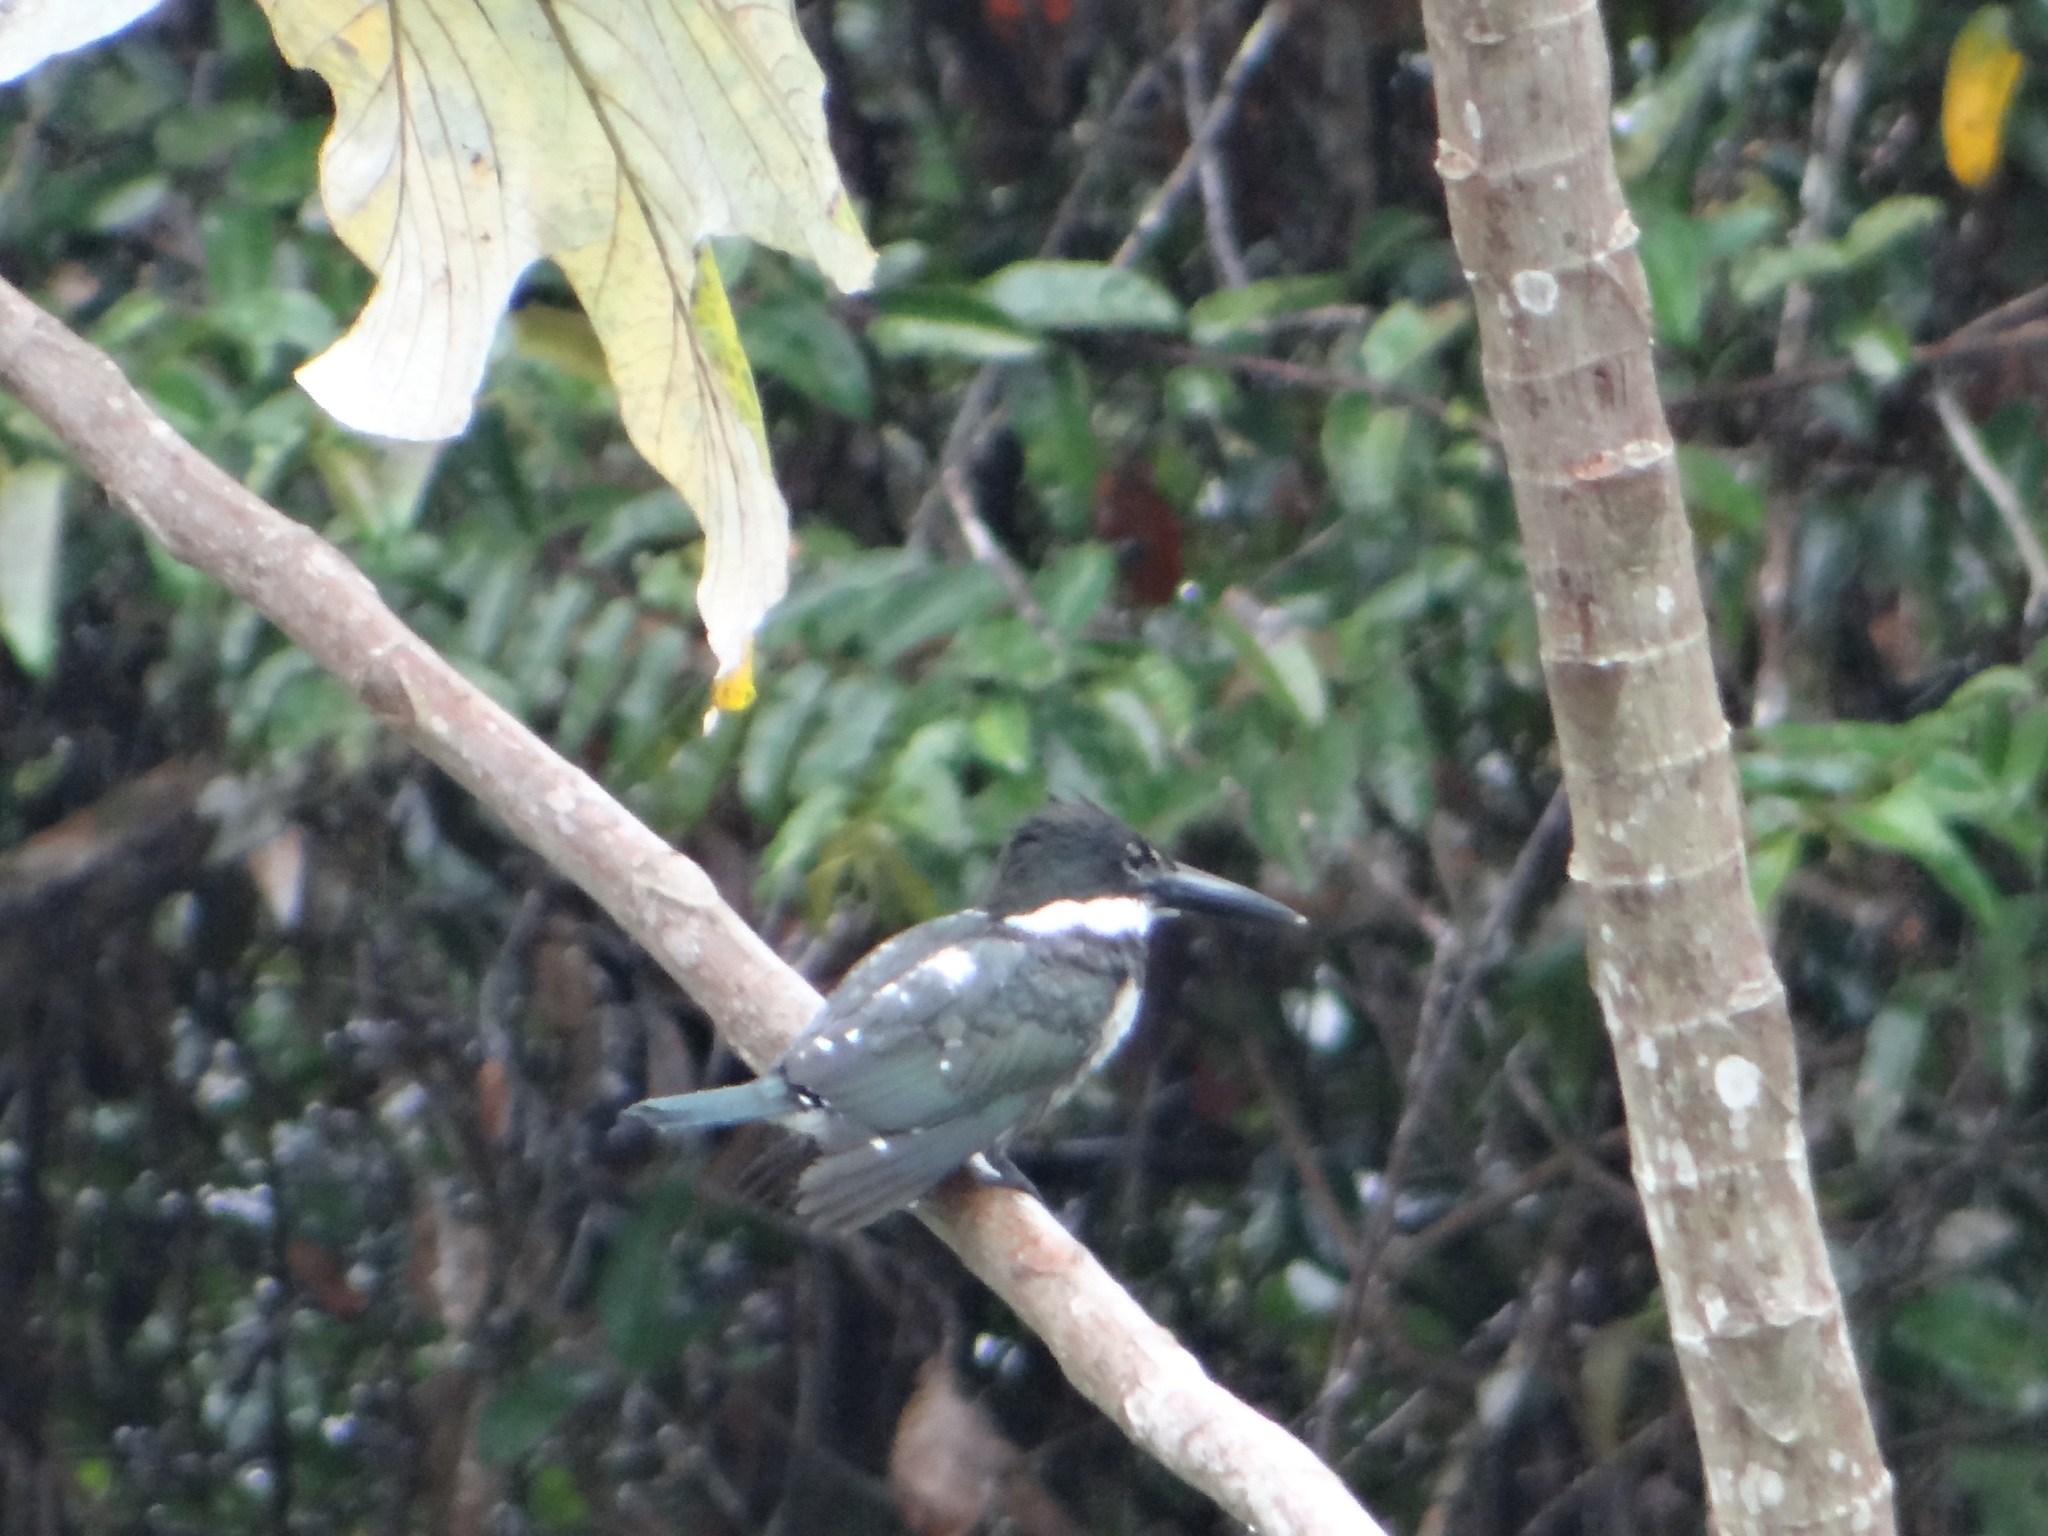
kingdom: Animalia
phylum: Chordata
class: Aves
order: Coraciiformes
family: Alcedinidae
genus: Chloroceryle
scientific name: Chloroceryle amazona
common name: Amazon kingfisher
